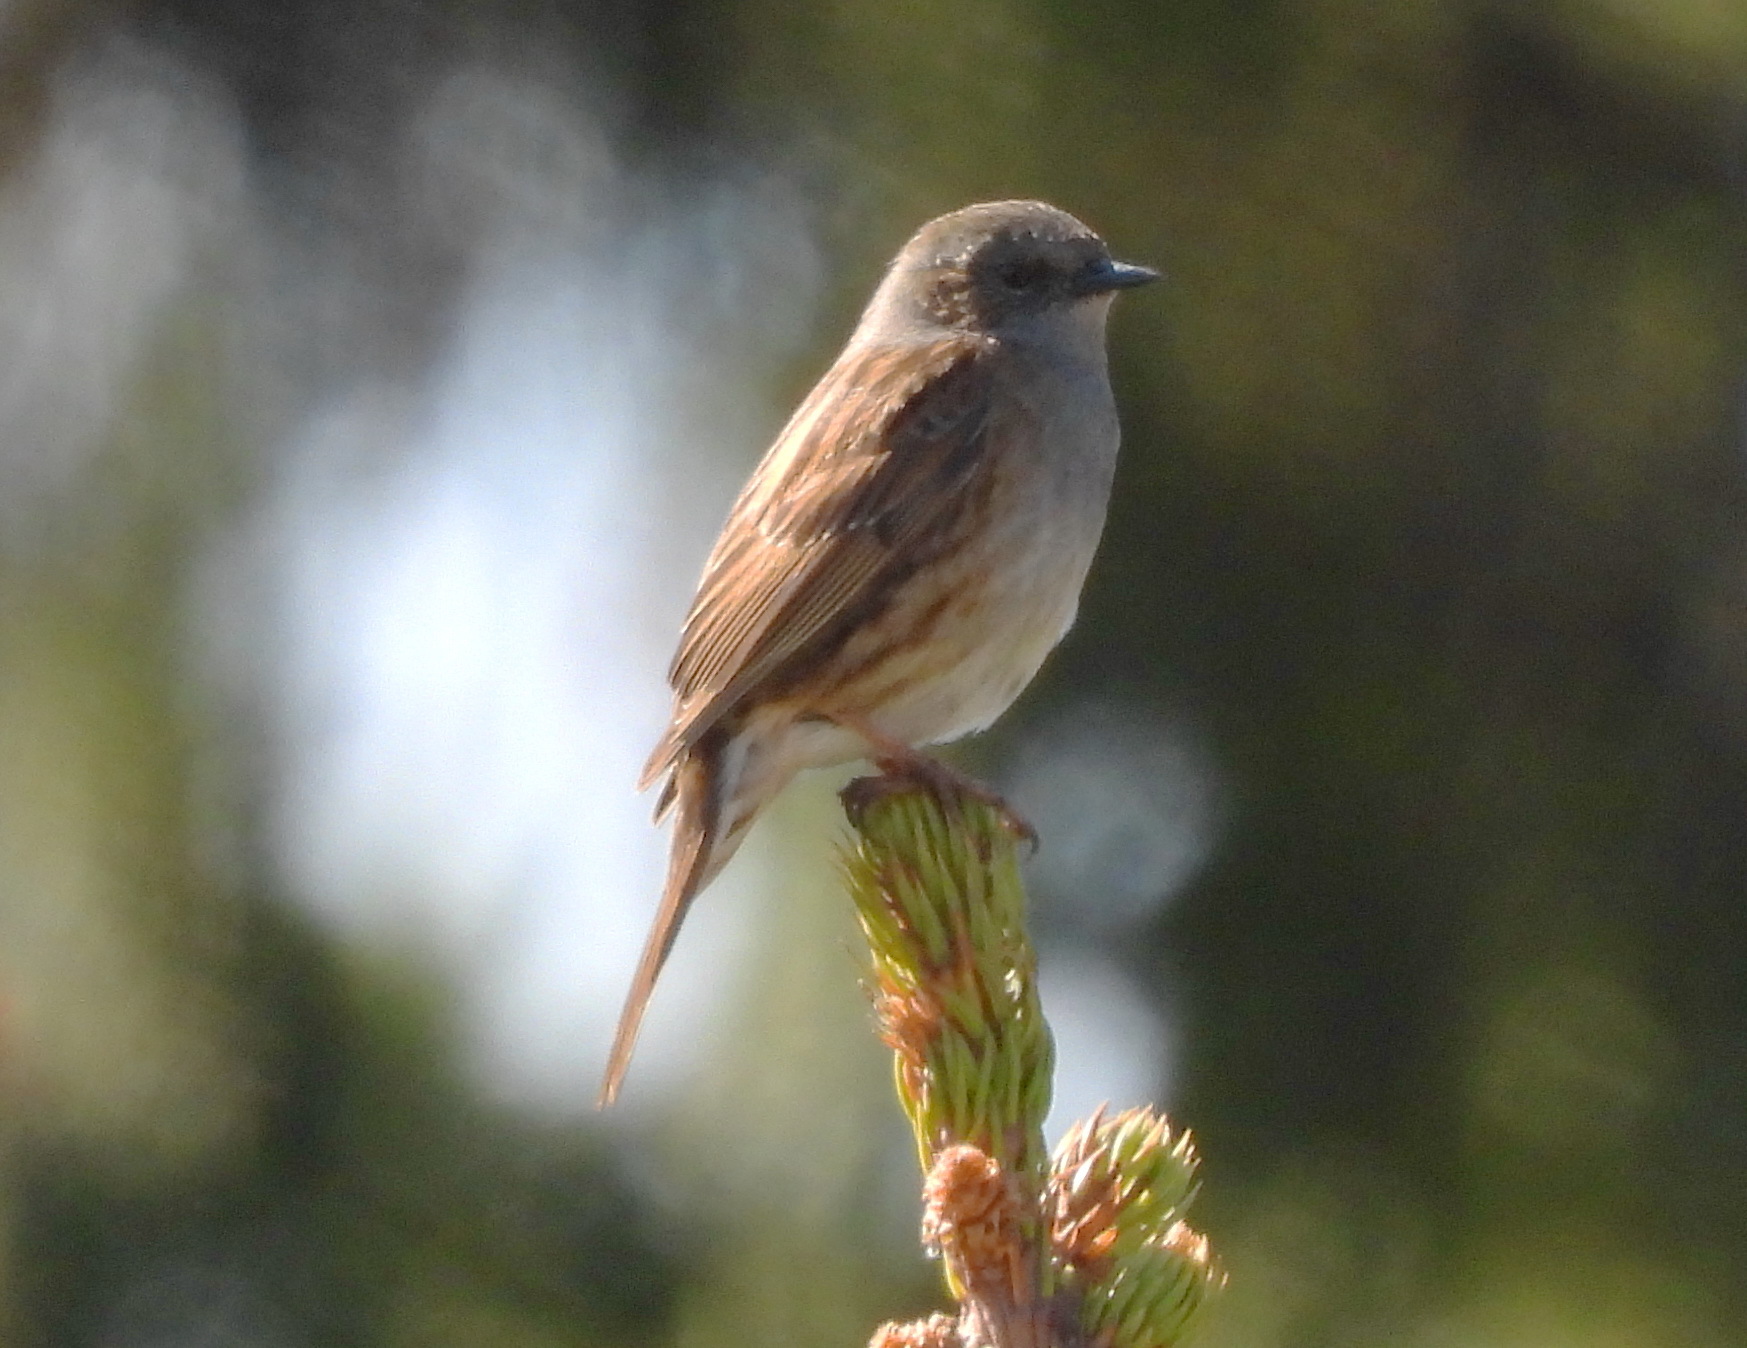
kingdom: Animalia
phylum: Chordata
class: Aves
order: Passeriformes
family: Prunellidae
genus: Prunella
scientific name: Prunella modularis
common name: Dunnock
